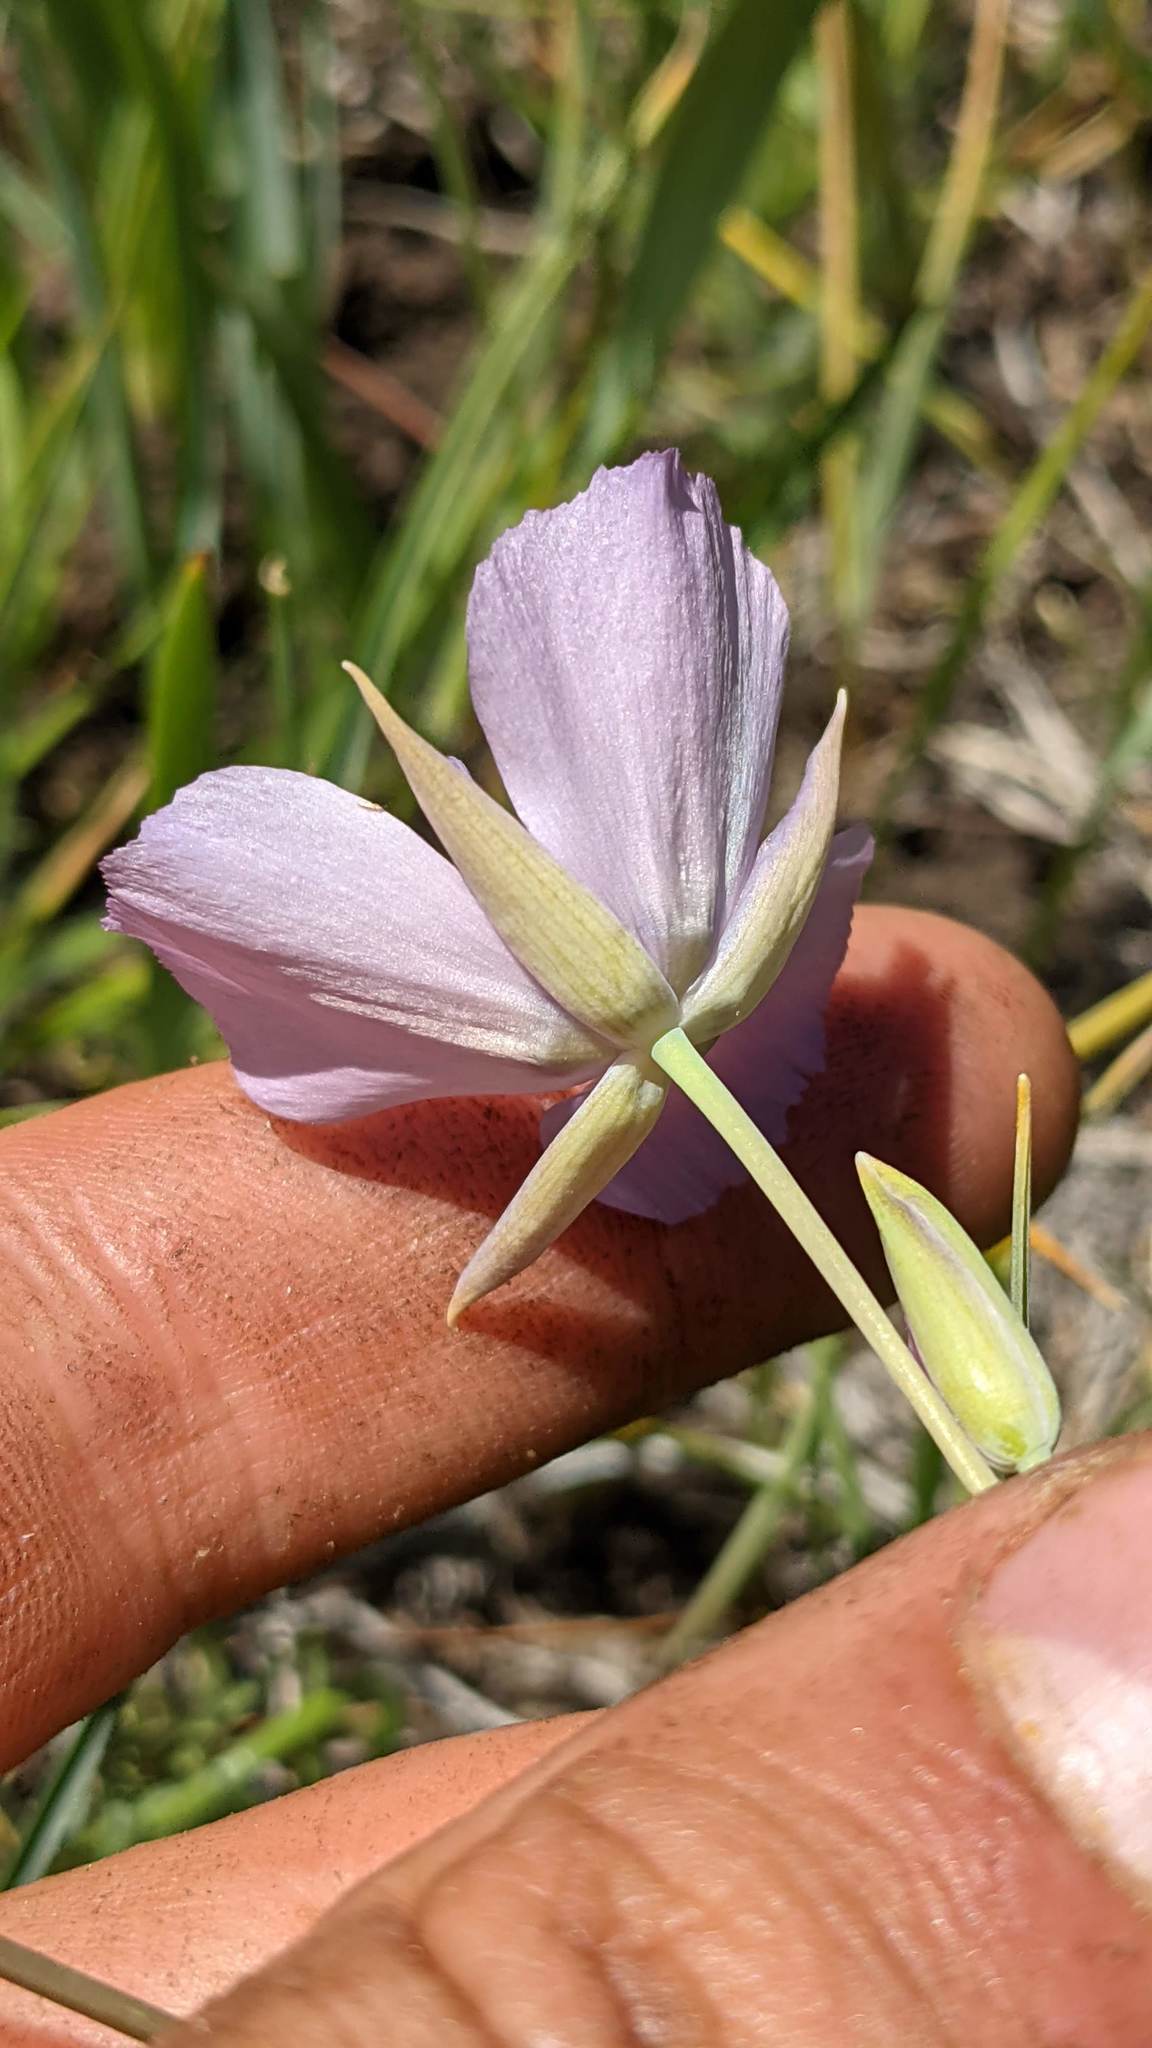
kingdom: Plantae
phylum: Tracheophyta
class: Liliopsida
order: Liliales
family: Liliaceae
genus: Calochortus
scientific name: Calochortus nudus
